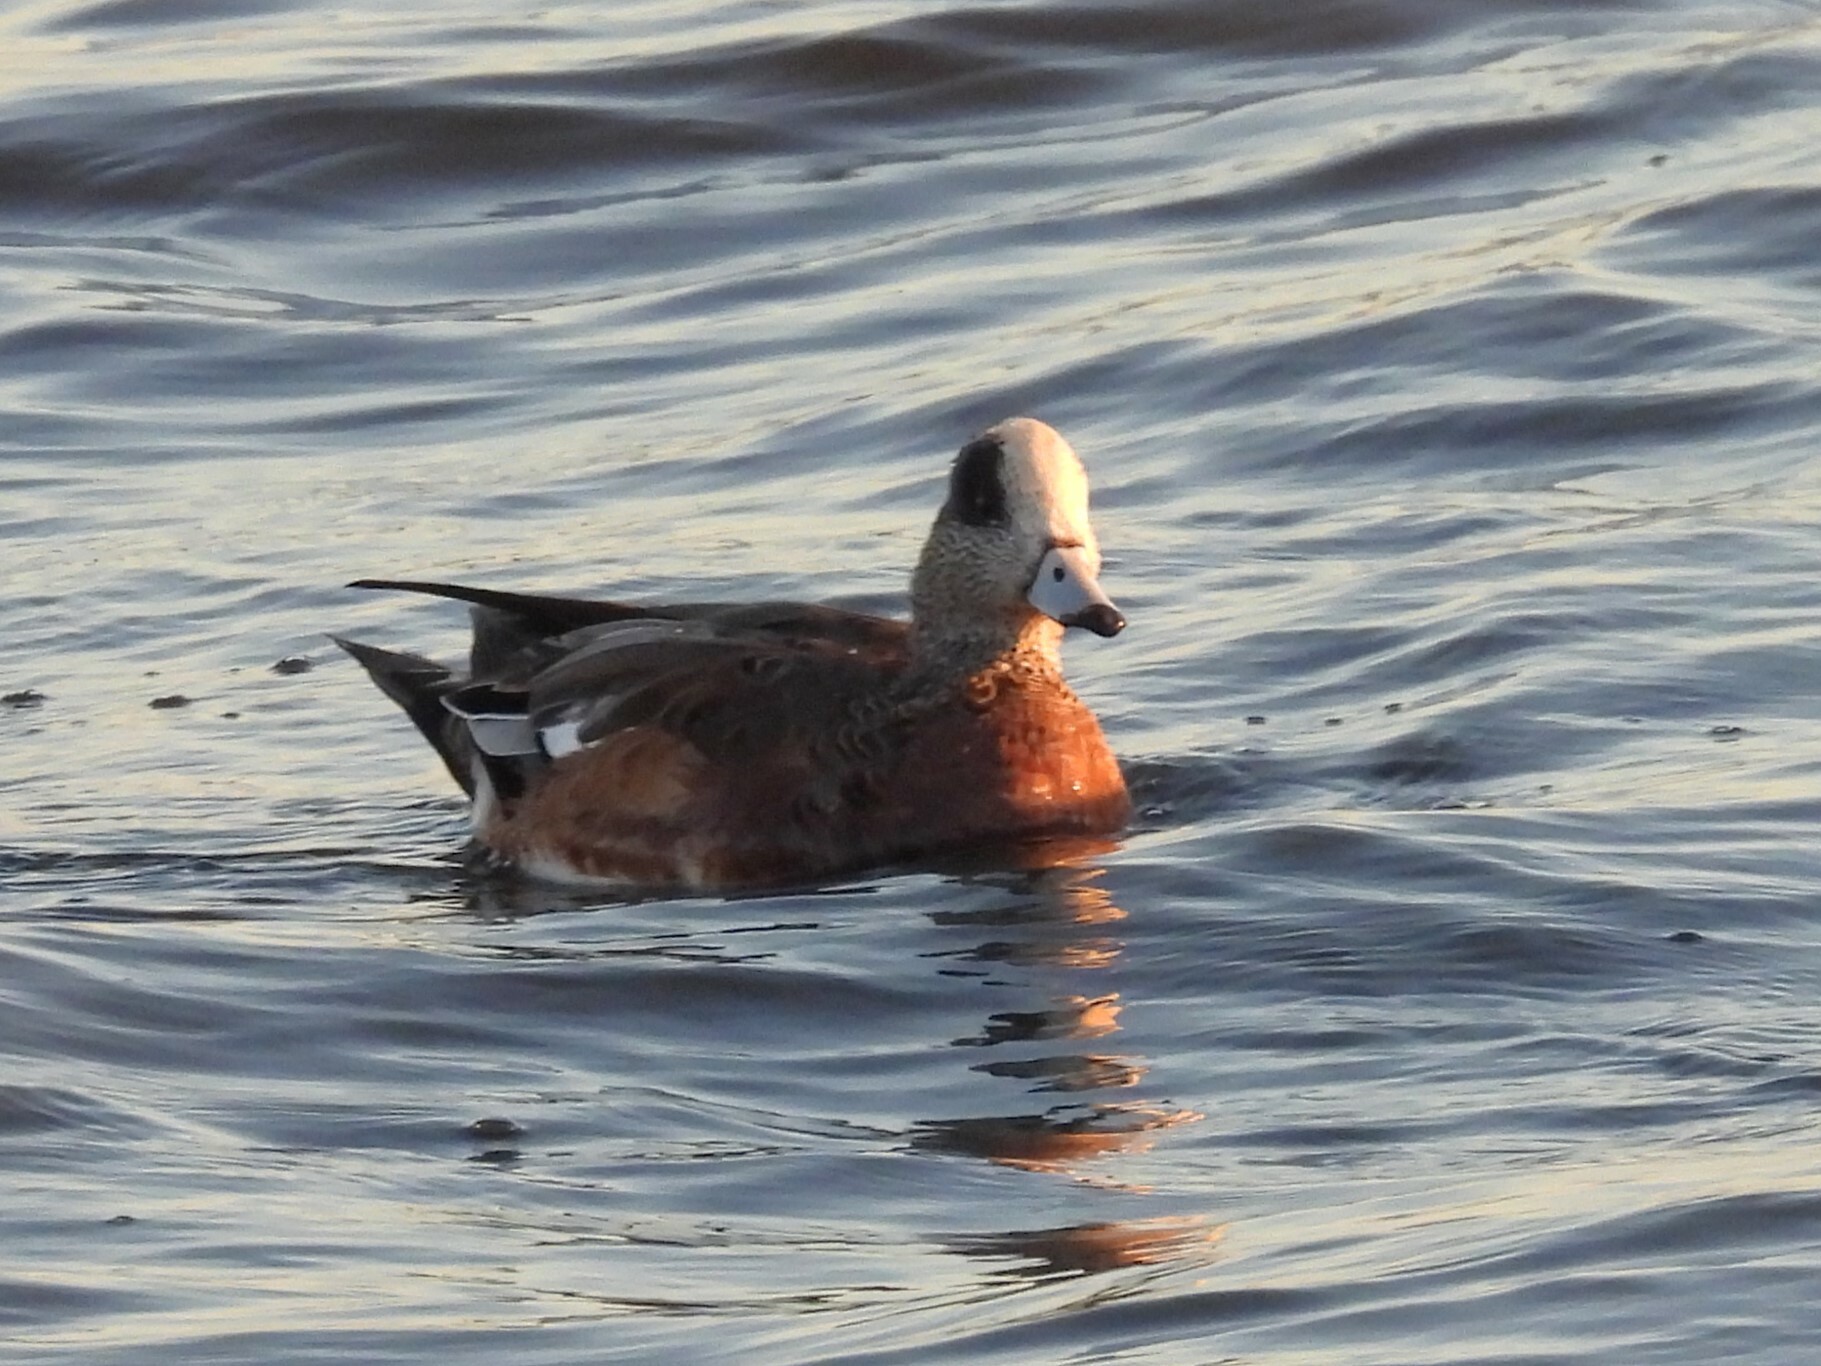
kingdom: Animalia
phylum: Chordata
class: Aves
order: Anseriformes
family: Anatidae
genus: Mareca
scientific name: Mareca americana
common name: American wigeon
